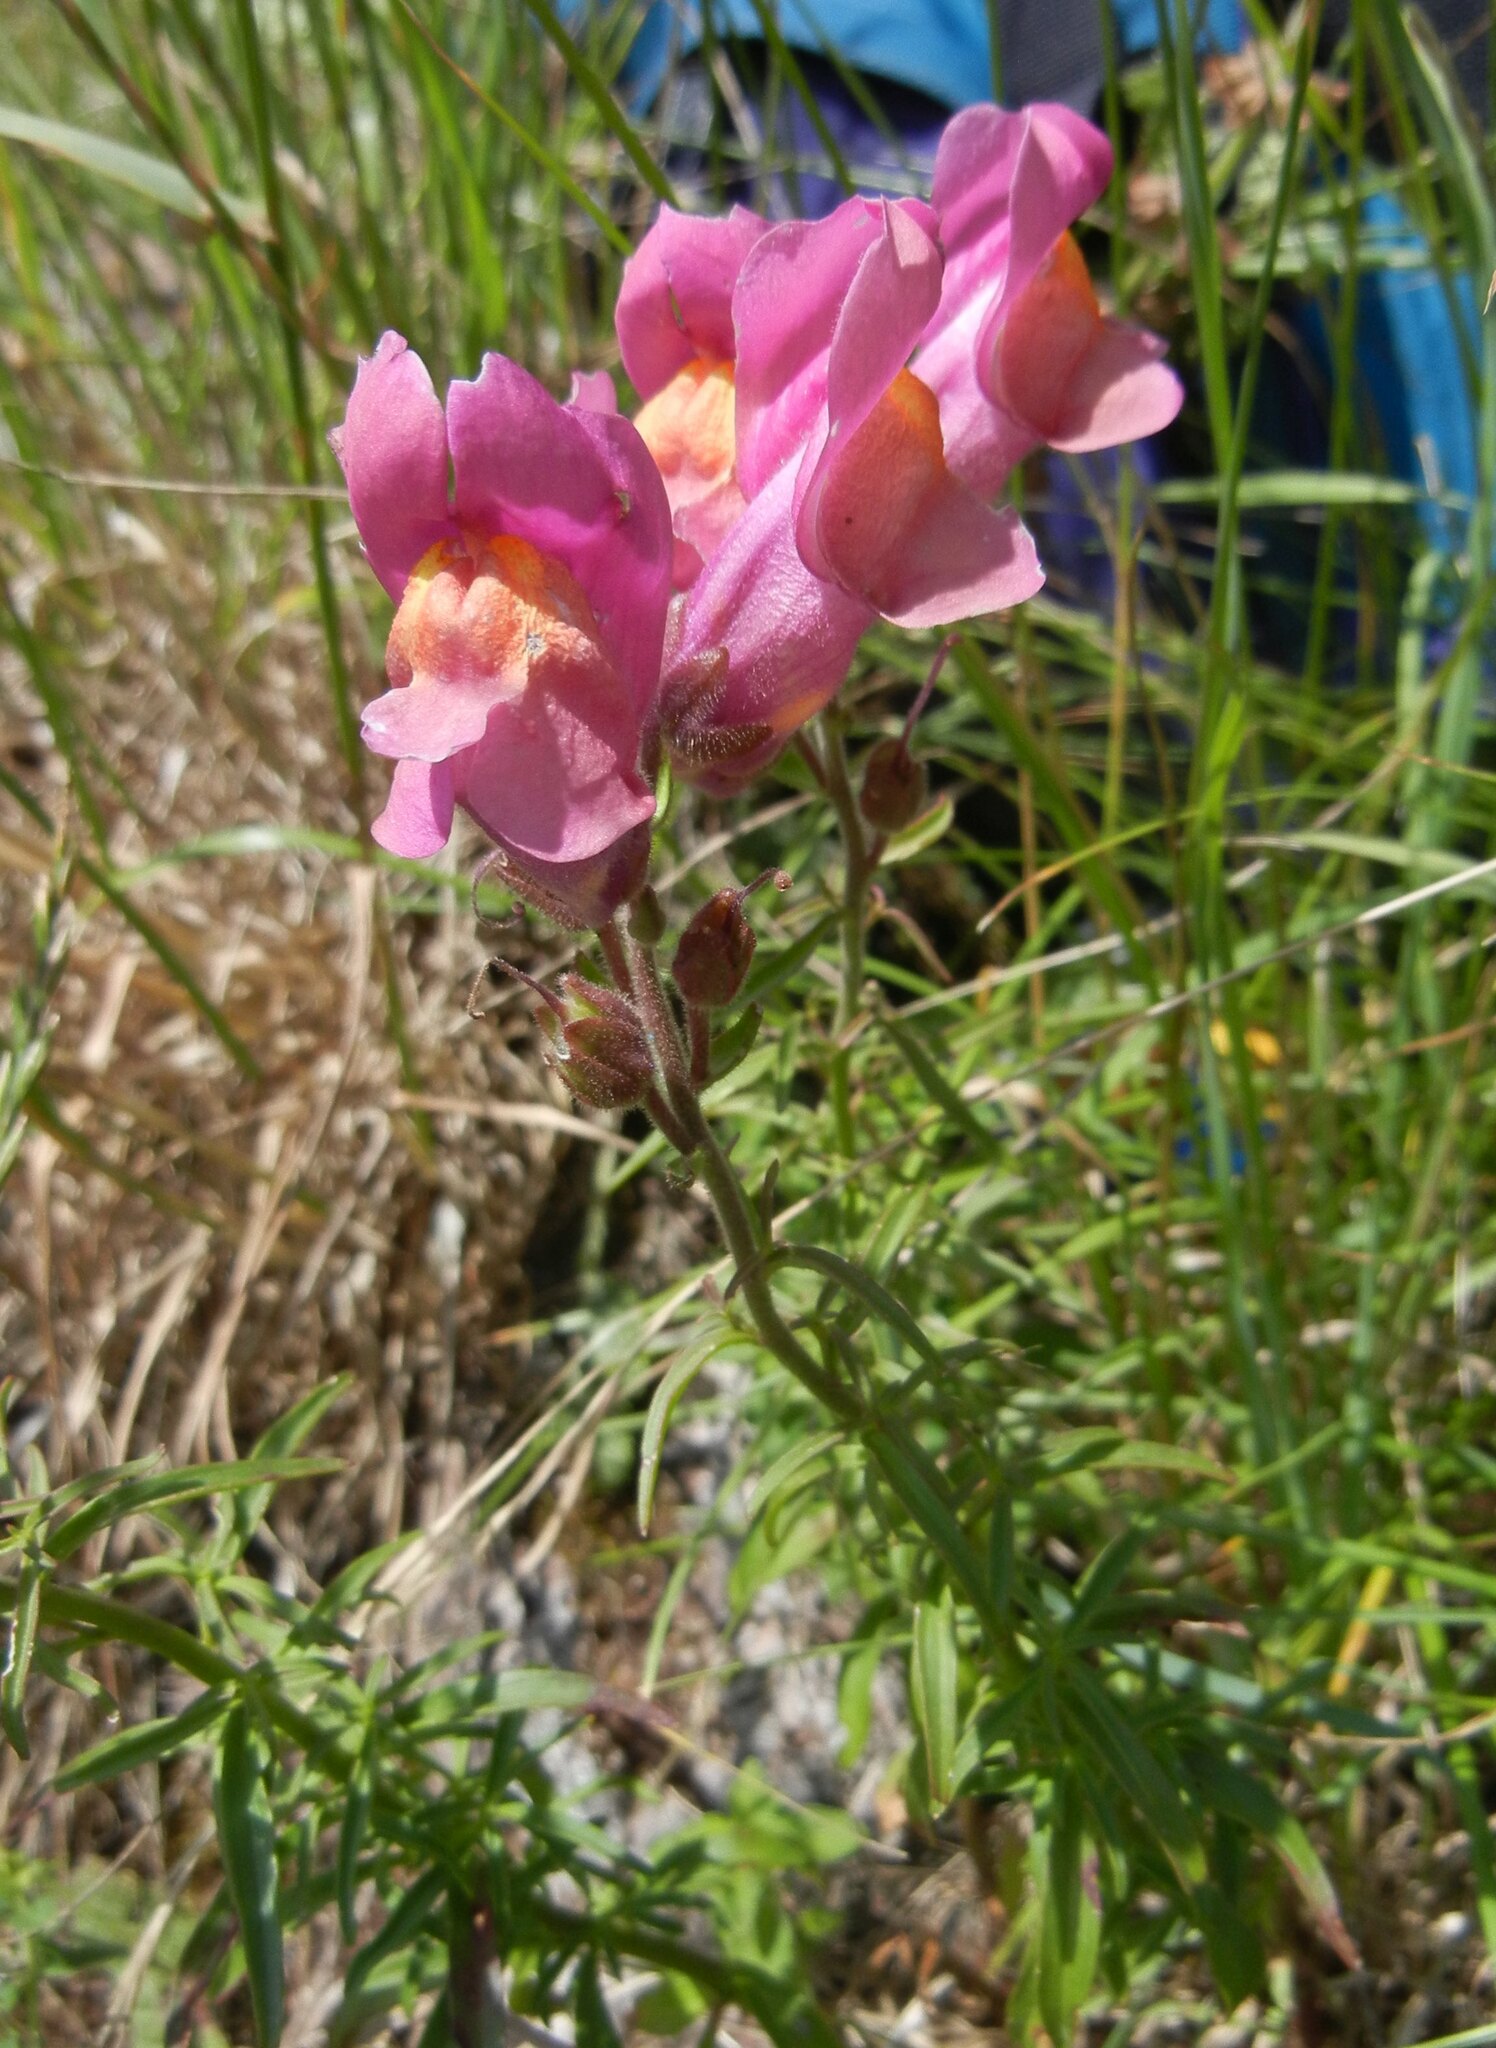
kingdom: Plantae
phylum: Tracheophyta
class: Magnoliopsida
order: Lamiales
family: Plantaginaceae
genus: Antirrhinum
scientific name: Antirrhinum majus
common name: Snapdragon
